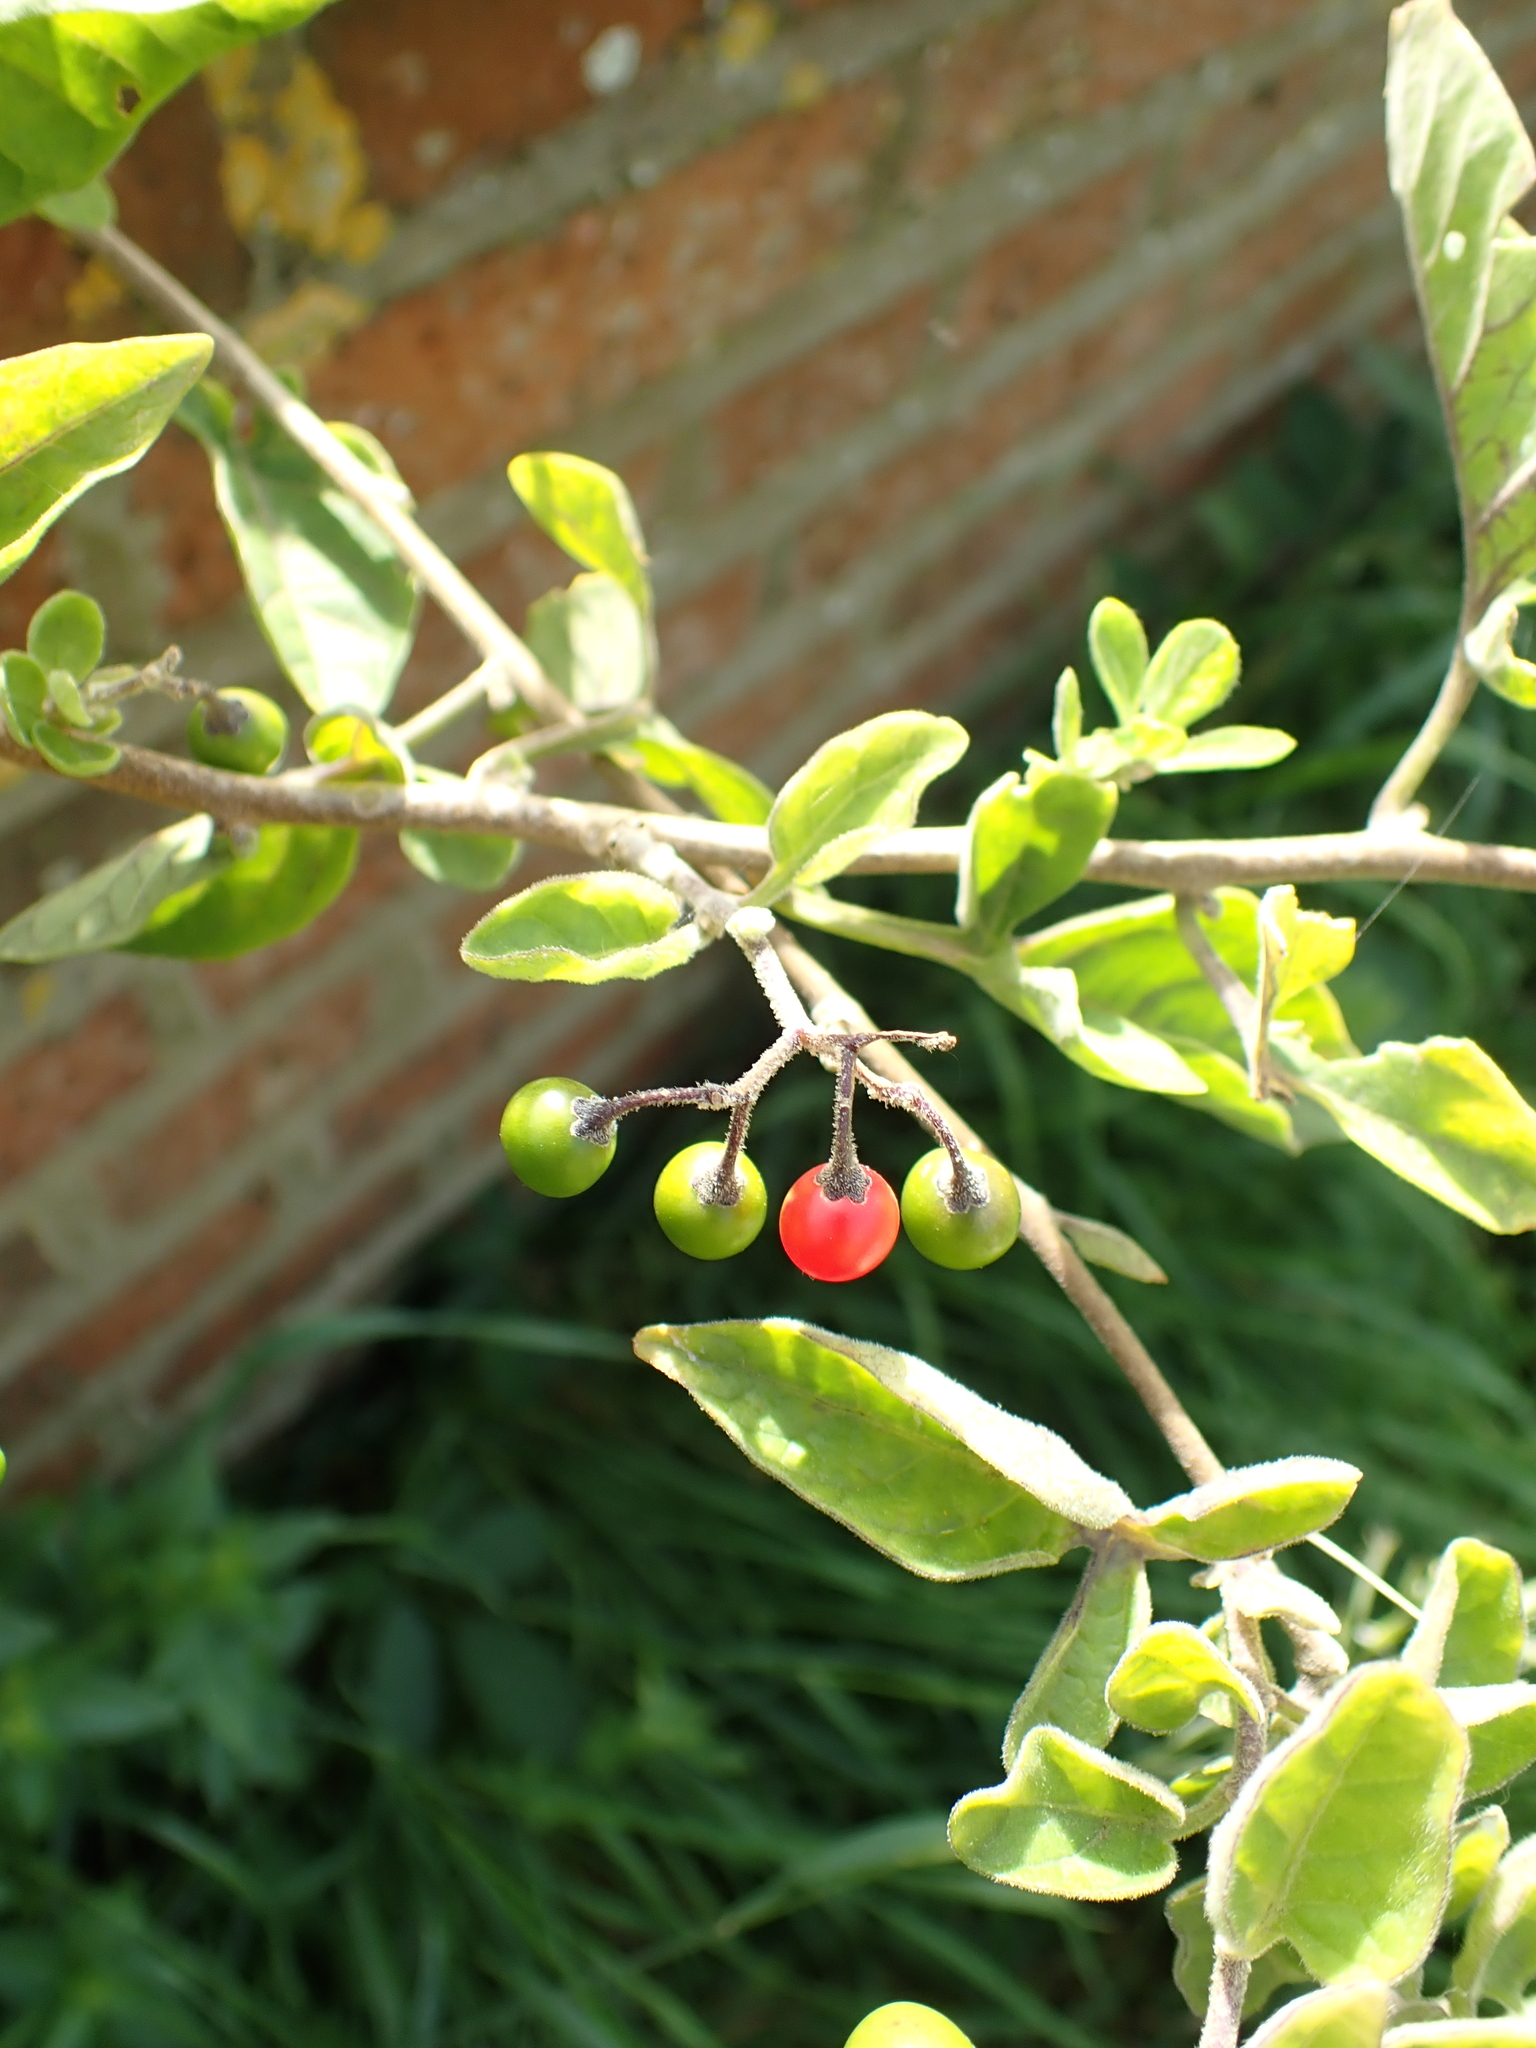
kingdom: Plantae
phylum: Tracheophyta
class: Magnoliopsida
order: Solanales
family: Solanaceae
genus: Solanum
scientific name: Solanum dulcamara
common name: Climbing nightshade
